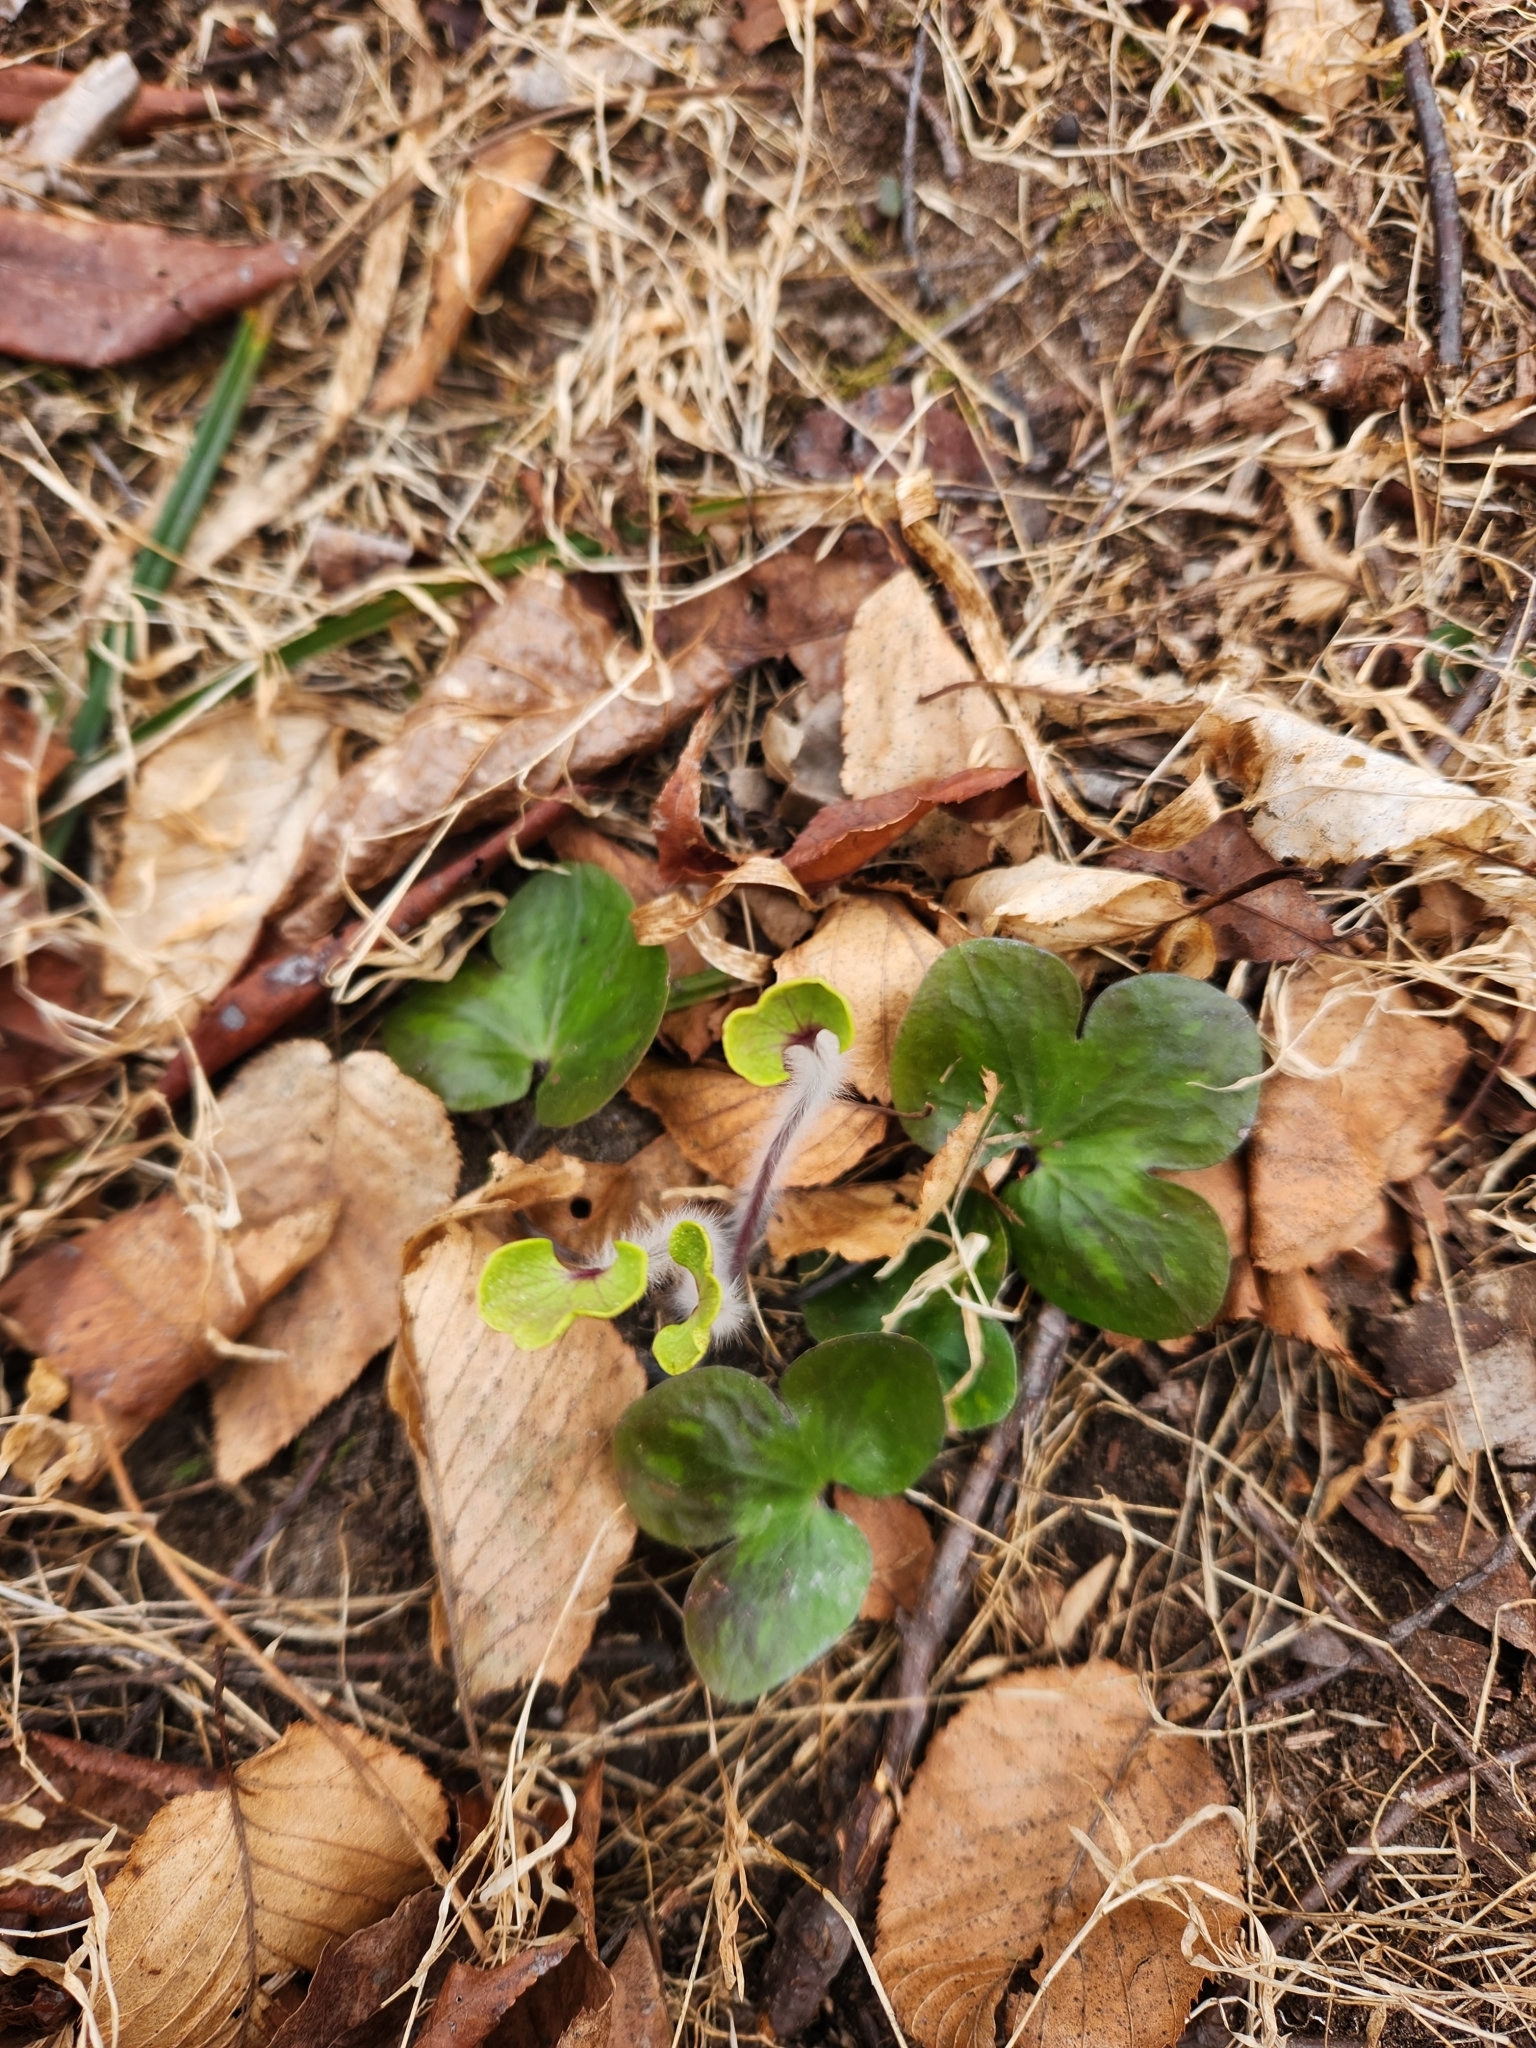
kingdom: Plantae
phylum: Tracheophyta
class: Magnoliopsida
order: Ranunculales
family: Ranunculaceae
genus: Hepatica
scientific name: Hepatica americana
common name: American hepatica
